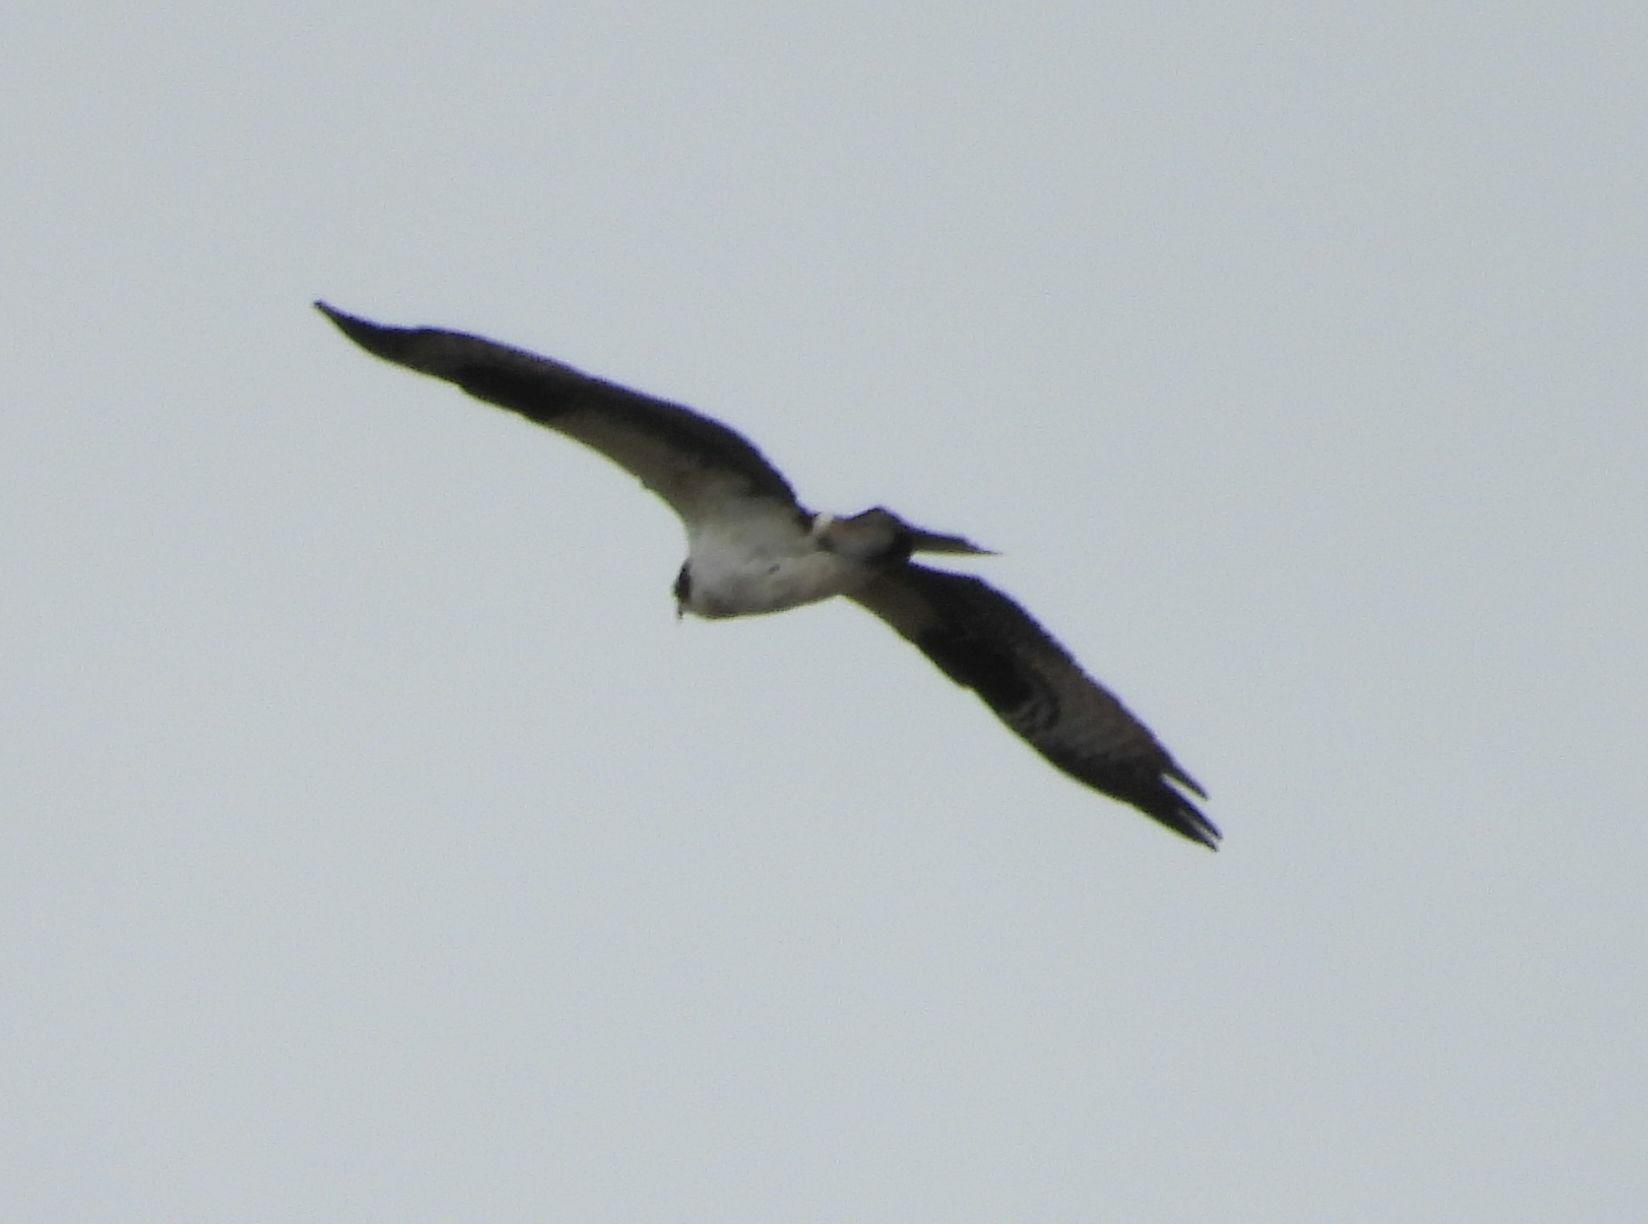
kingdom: Animalia
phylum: Chordata
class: Aves
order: Accipitriformes
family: Pandionidae
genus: Pandion
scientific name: Pandion haliaetus
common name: Osprey
